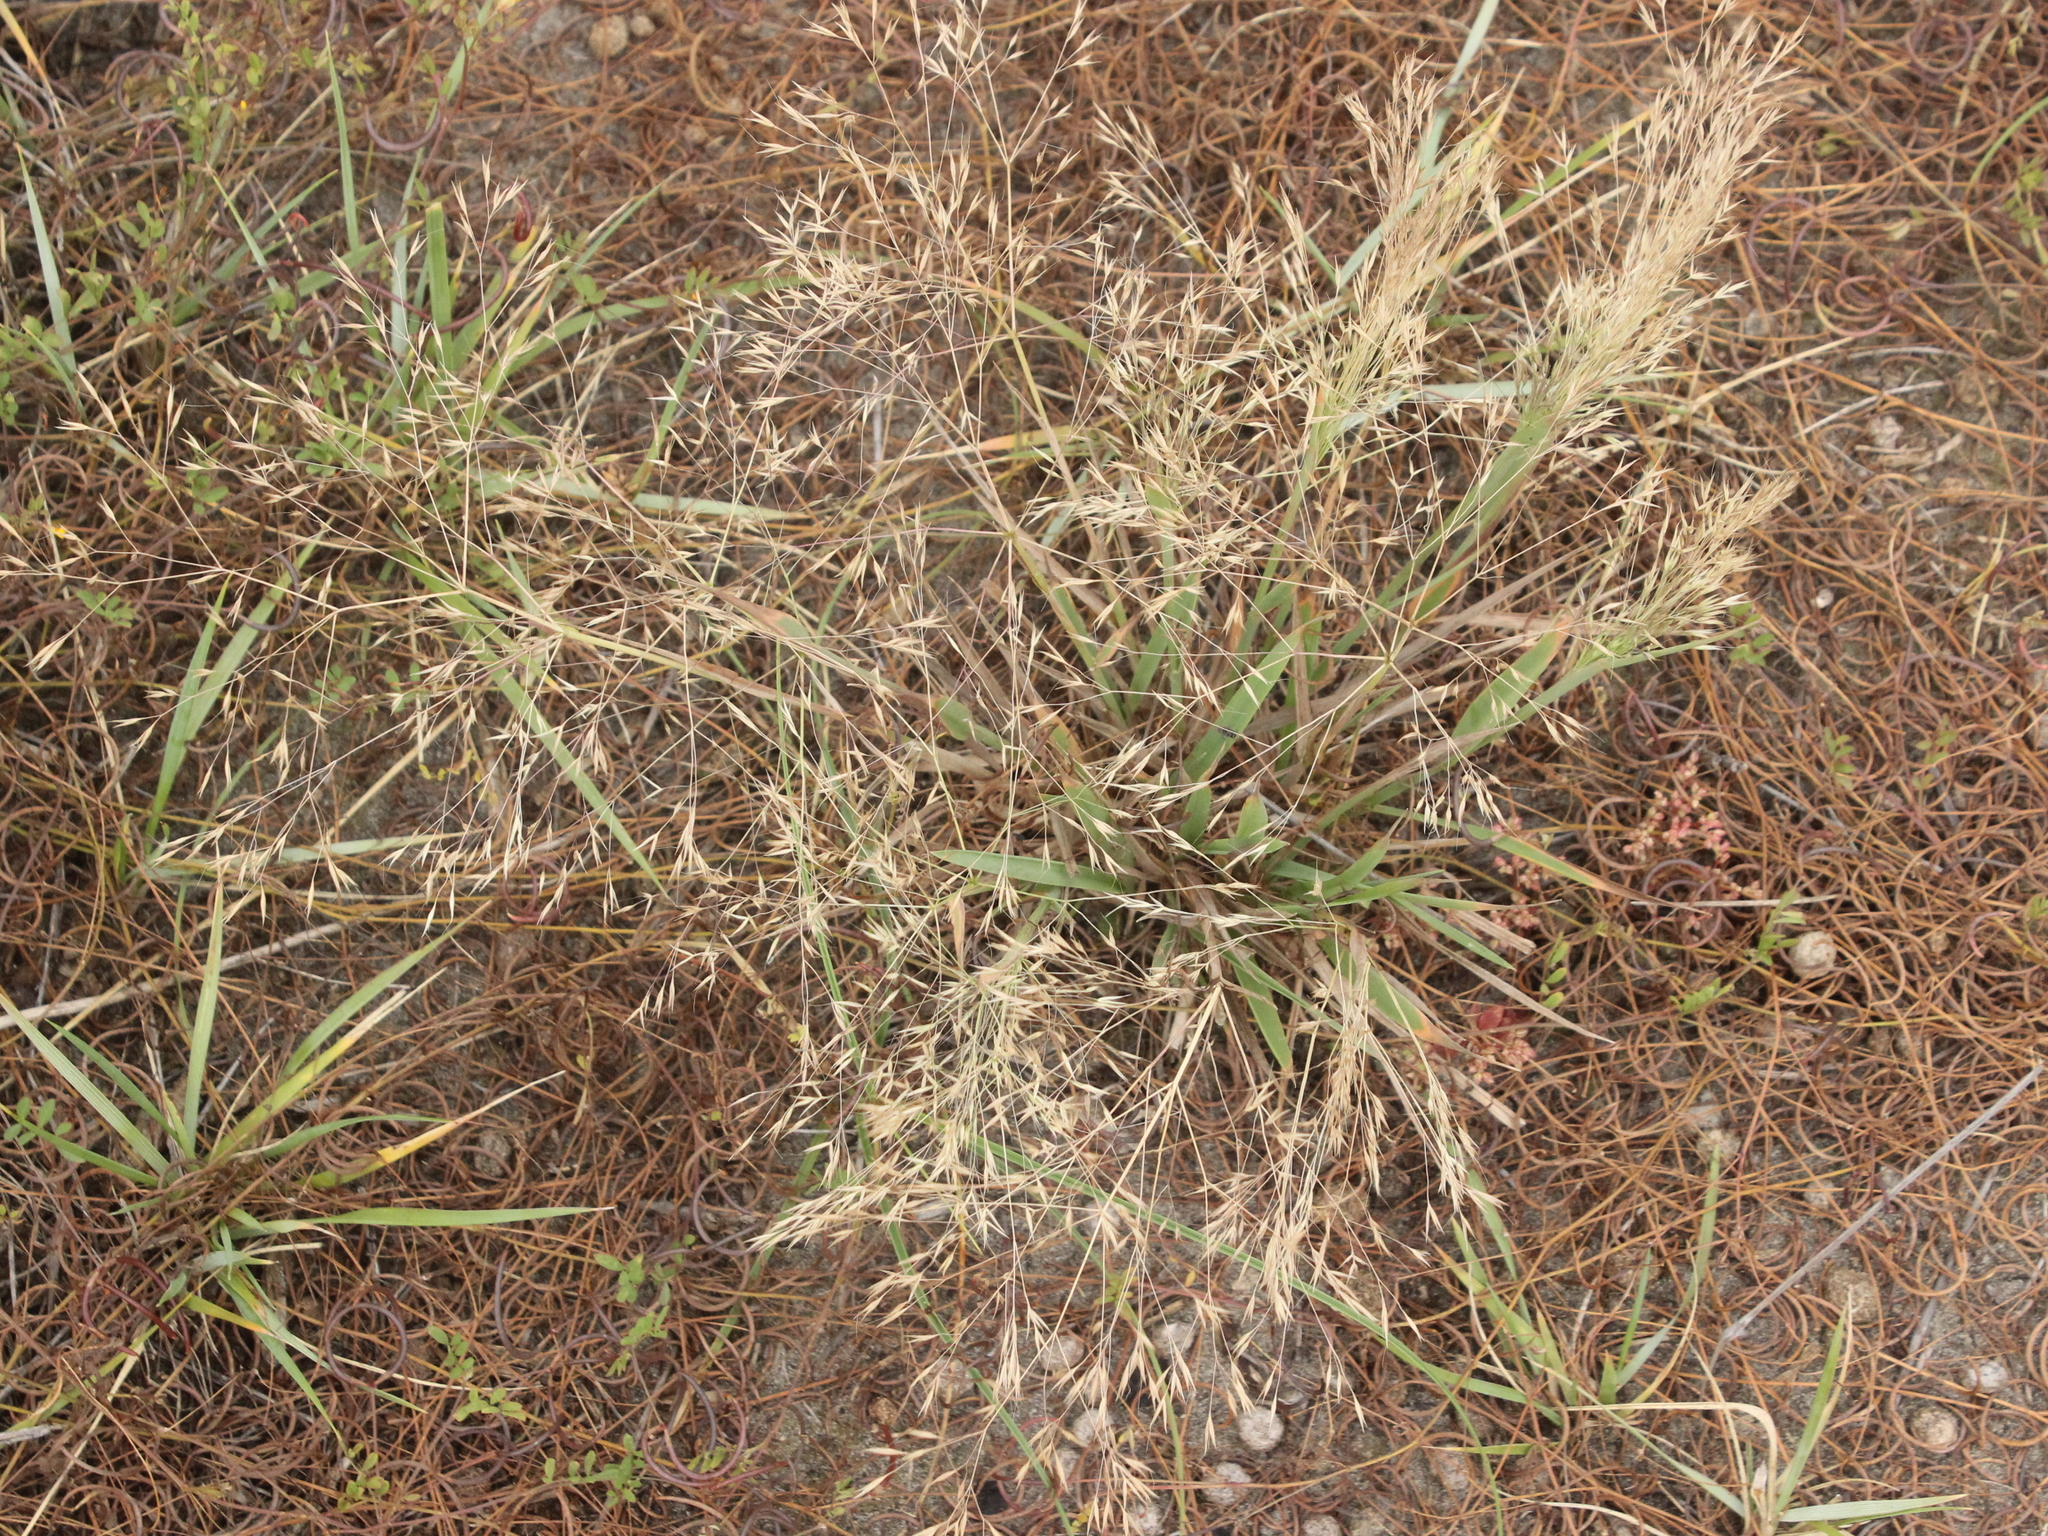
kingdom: Plantae
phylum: Tracheophyta
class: Liliopsida
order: Poales
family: Poaceae
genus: Lachnagrostis
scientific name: Lachnagrostis billardierei
